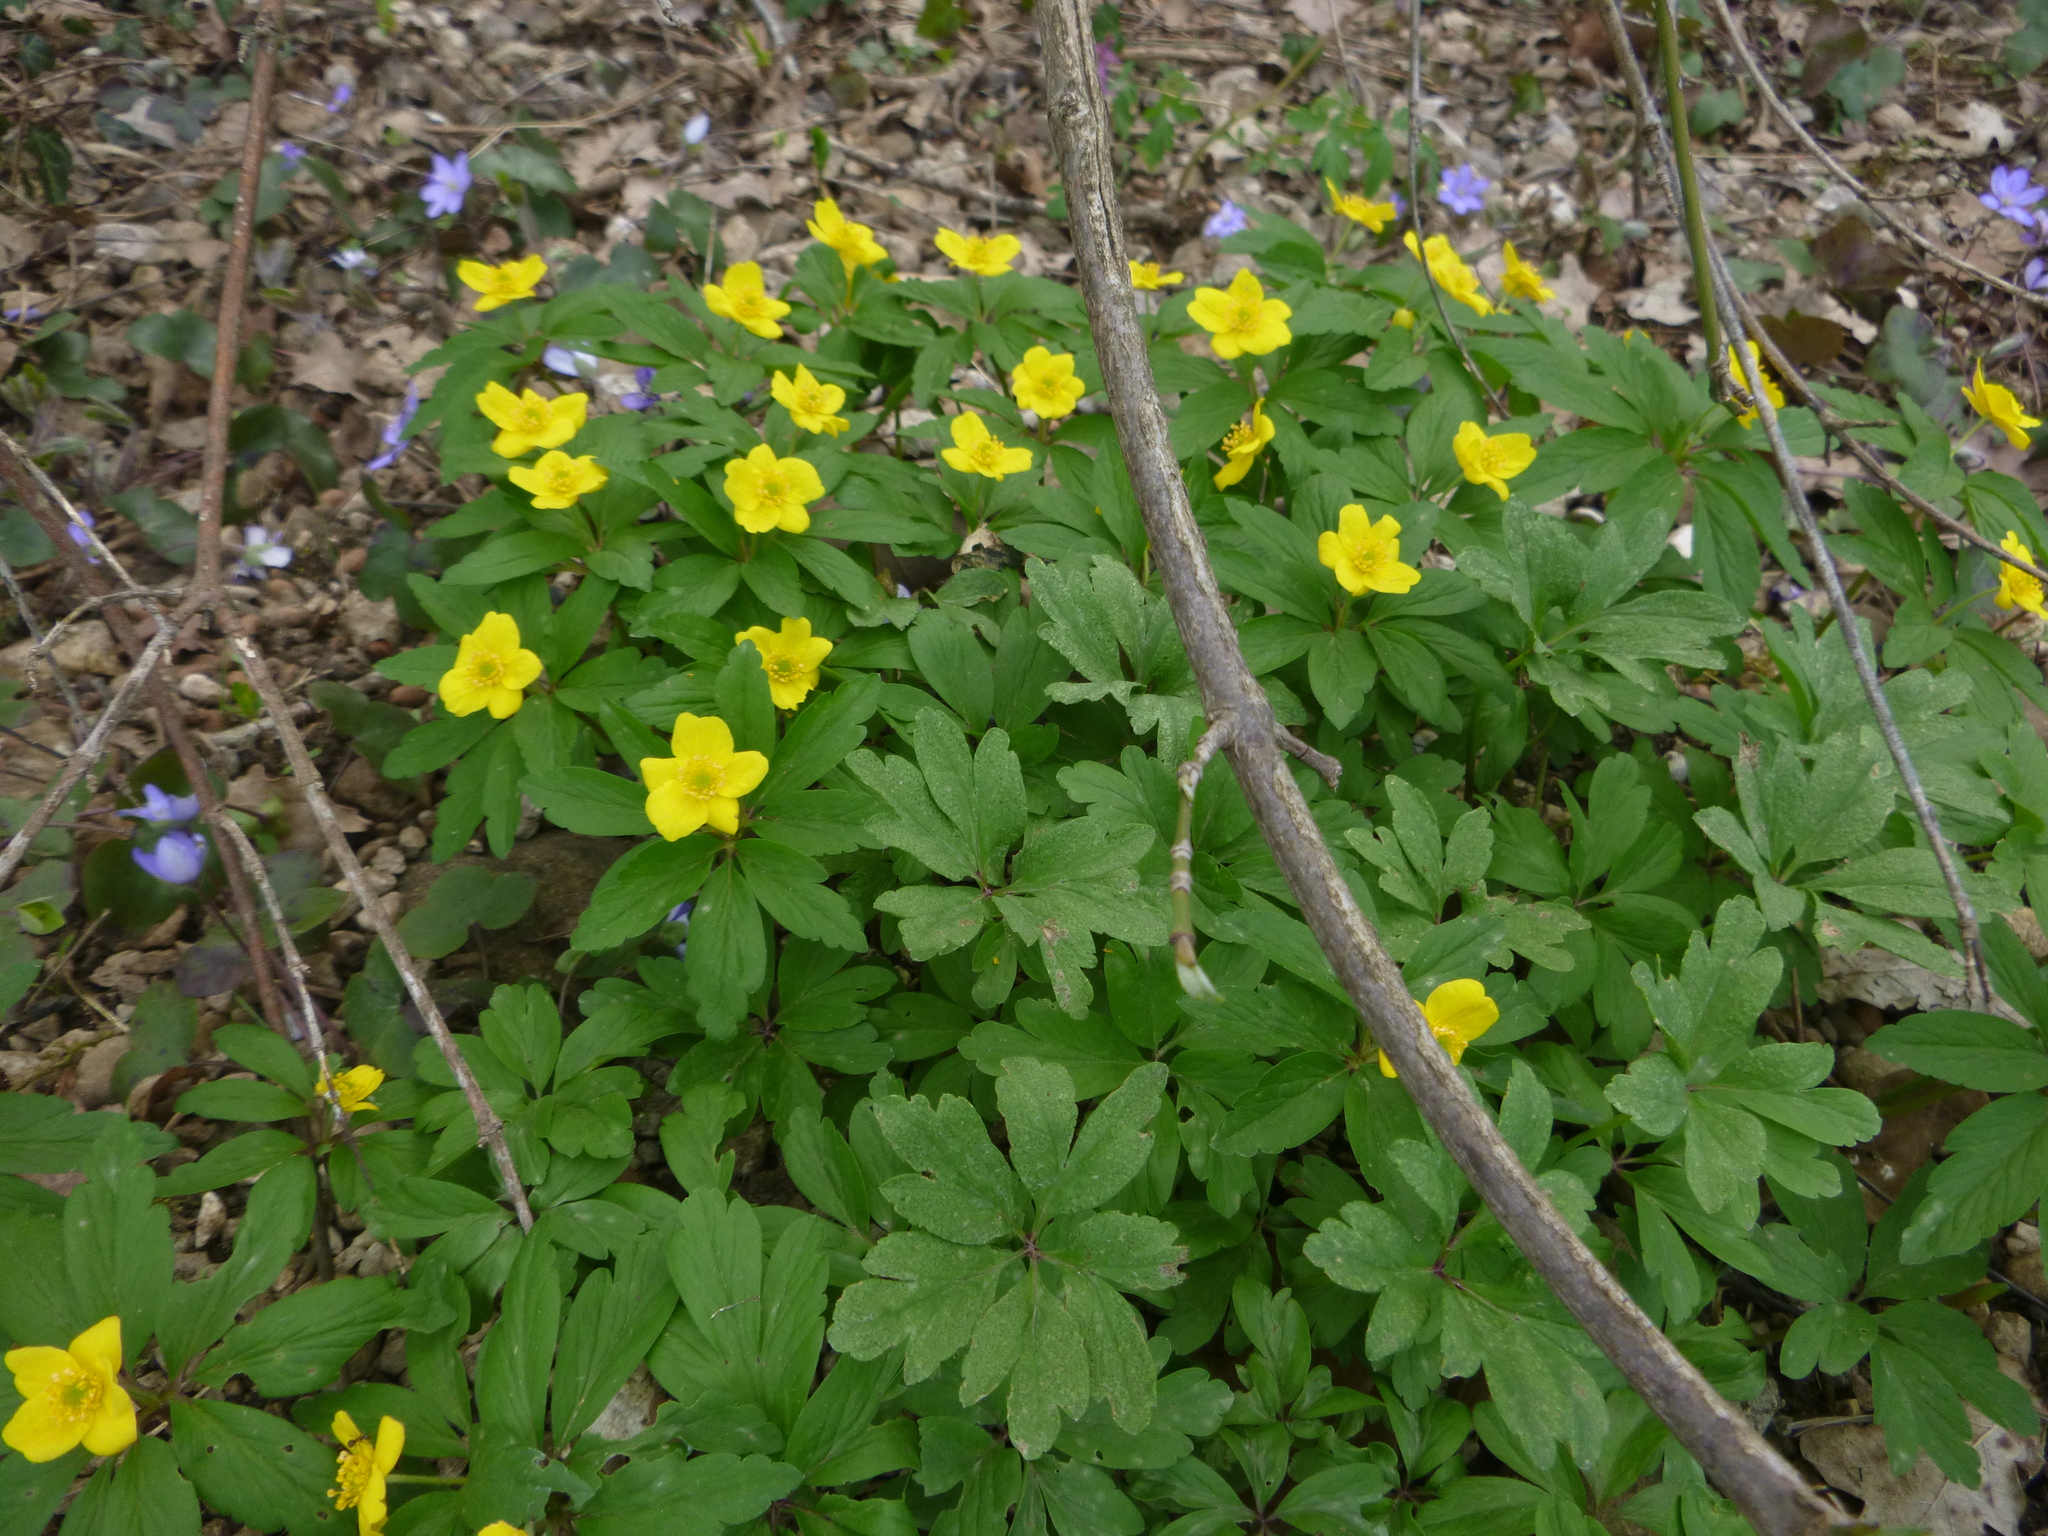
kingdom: Plantae
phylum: Tracheophyta
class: Magnoliopsida
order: Ranunculales
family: Ranunculaceae
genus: Anemone
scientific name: Anemone ranunculoides
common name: Yellow anemone
